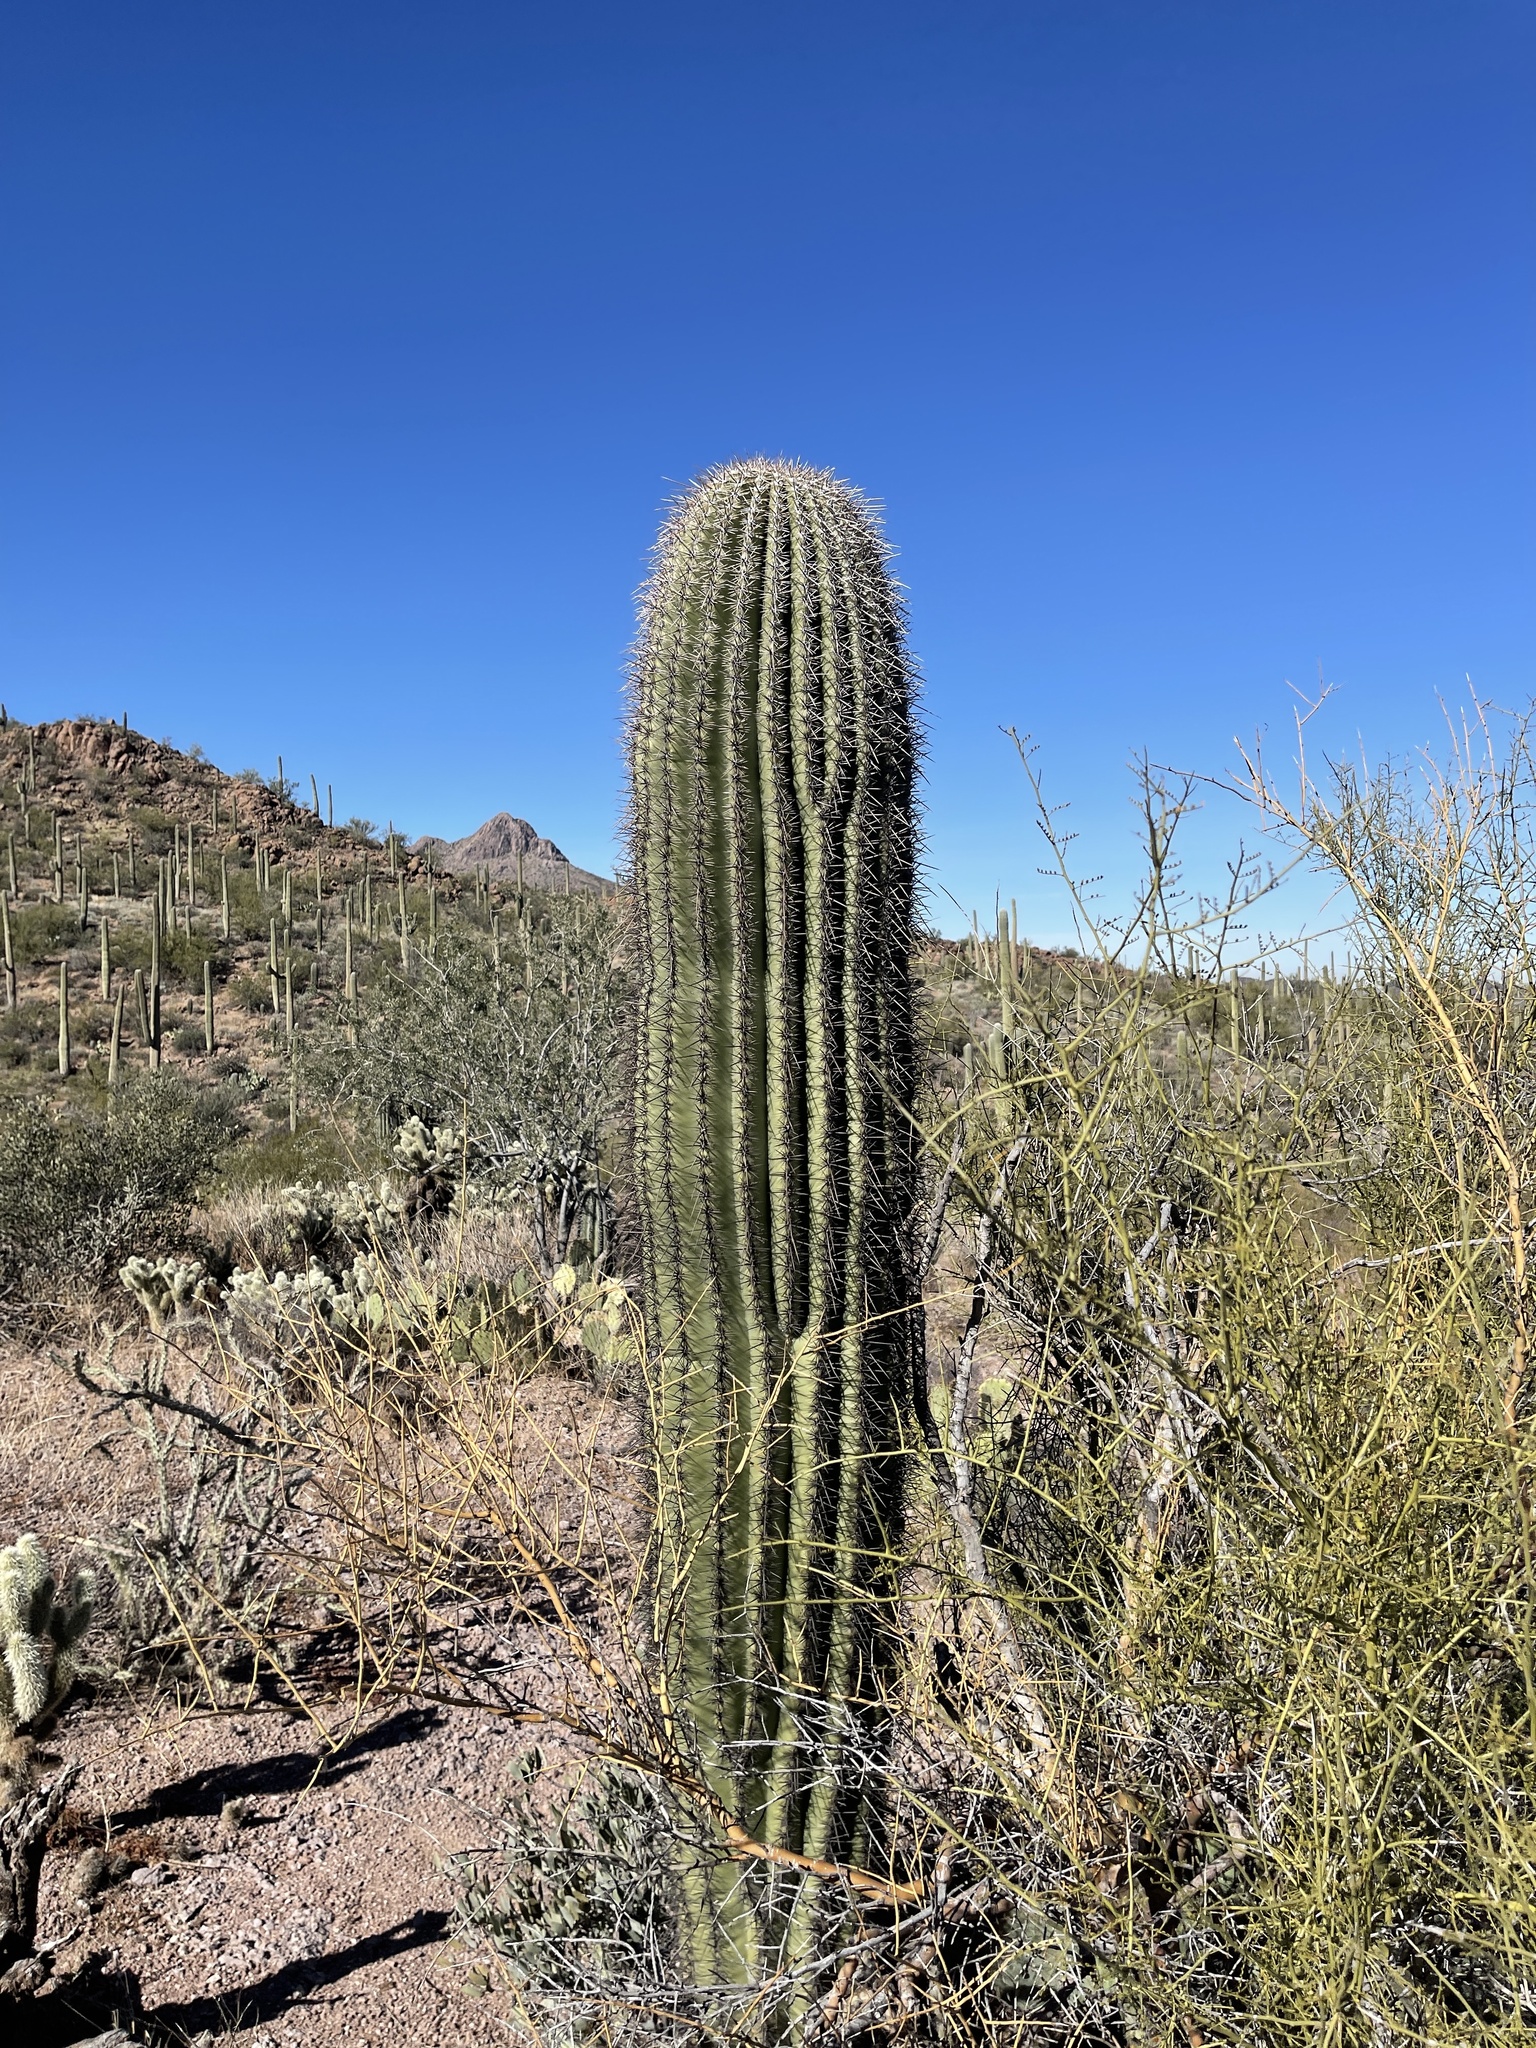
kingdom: Plantae
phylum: Tracheophyta
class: Magnoliopsida
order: Caryophyllales
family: Cactaceae
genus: Carnegiea
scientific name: Carnegiea gigantea
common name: Saguaro
